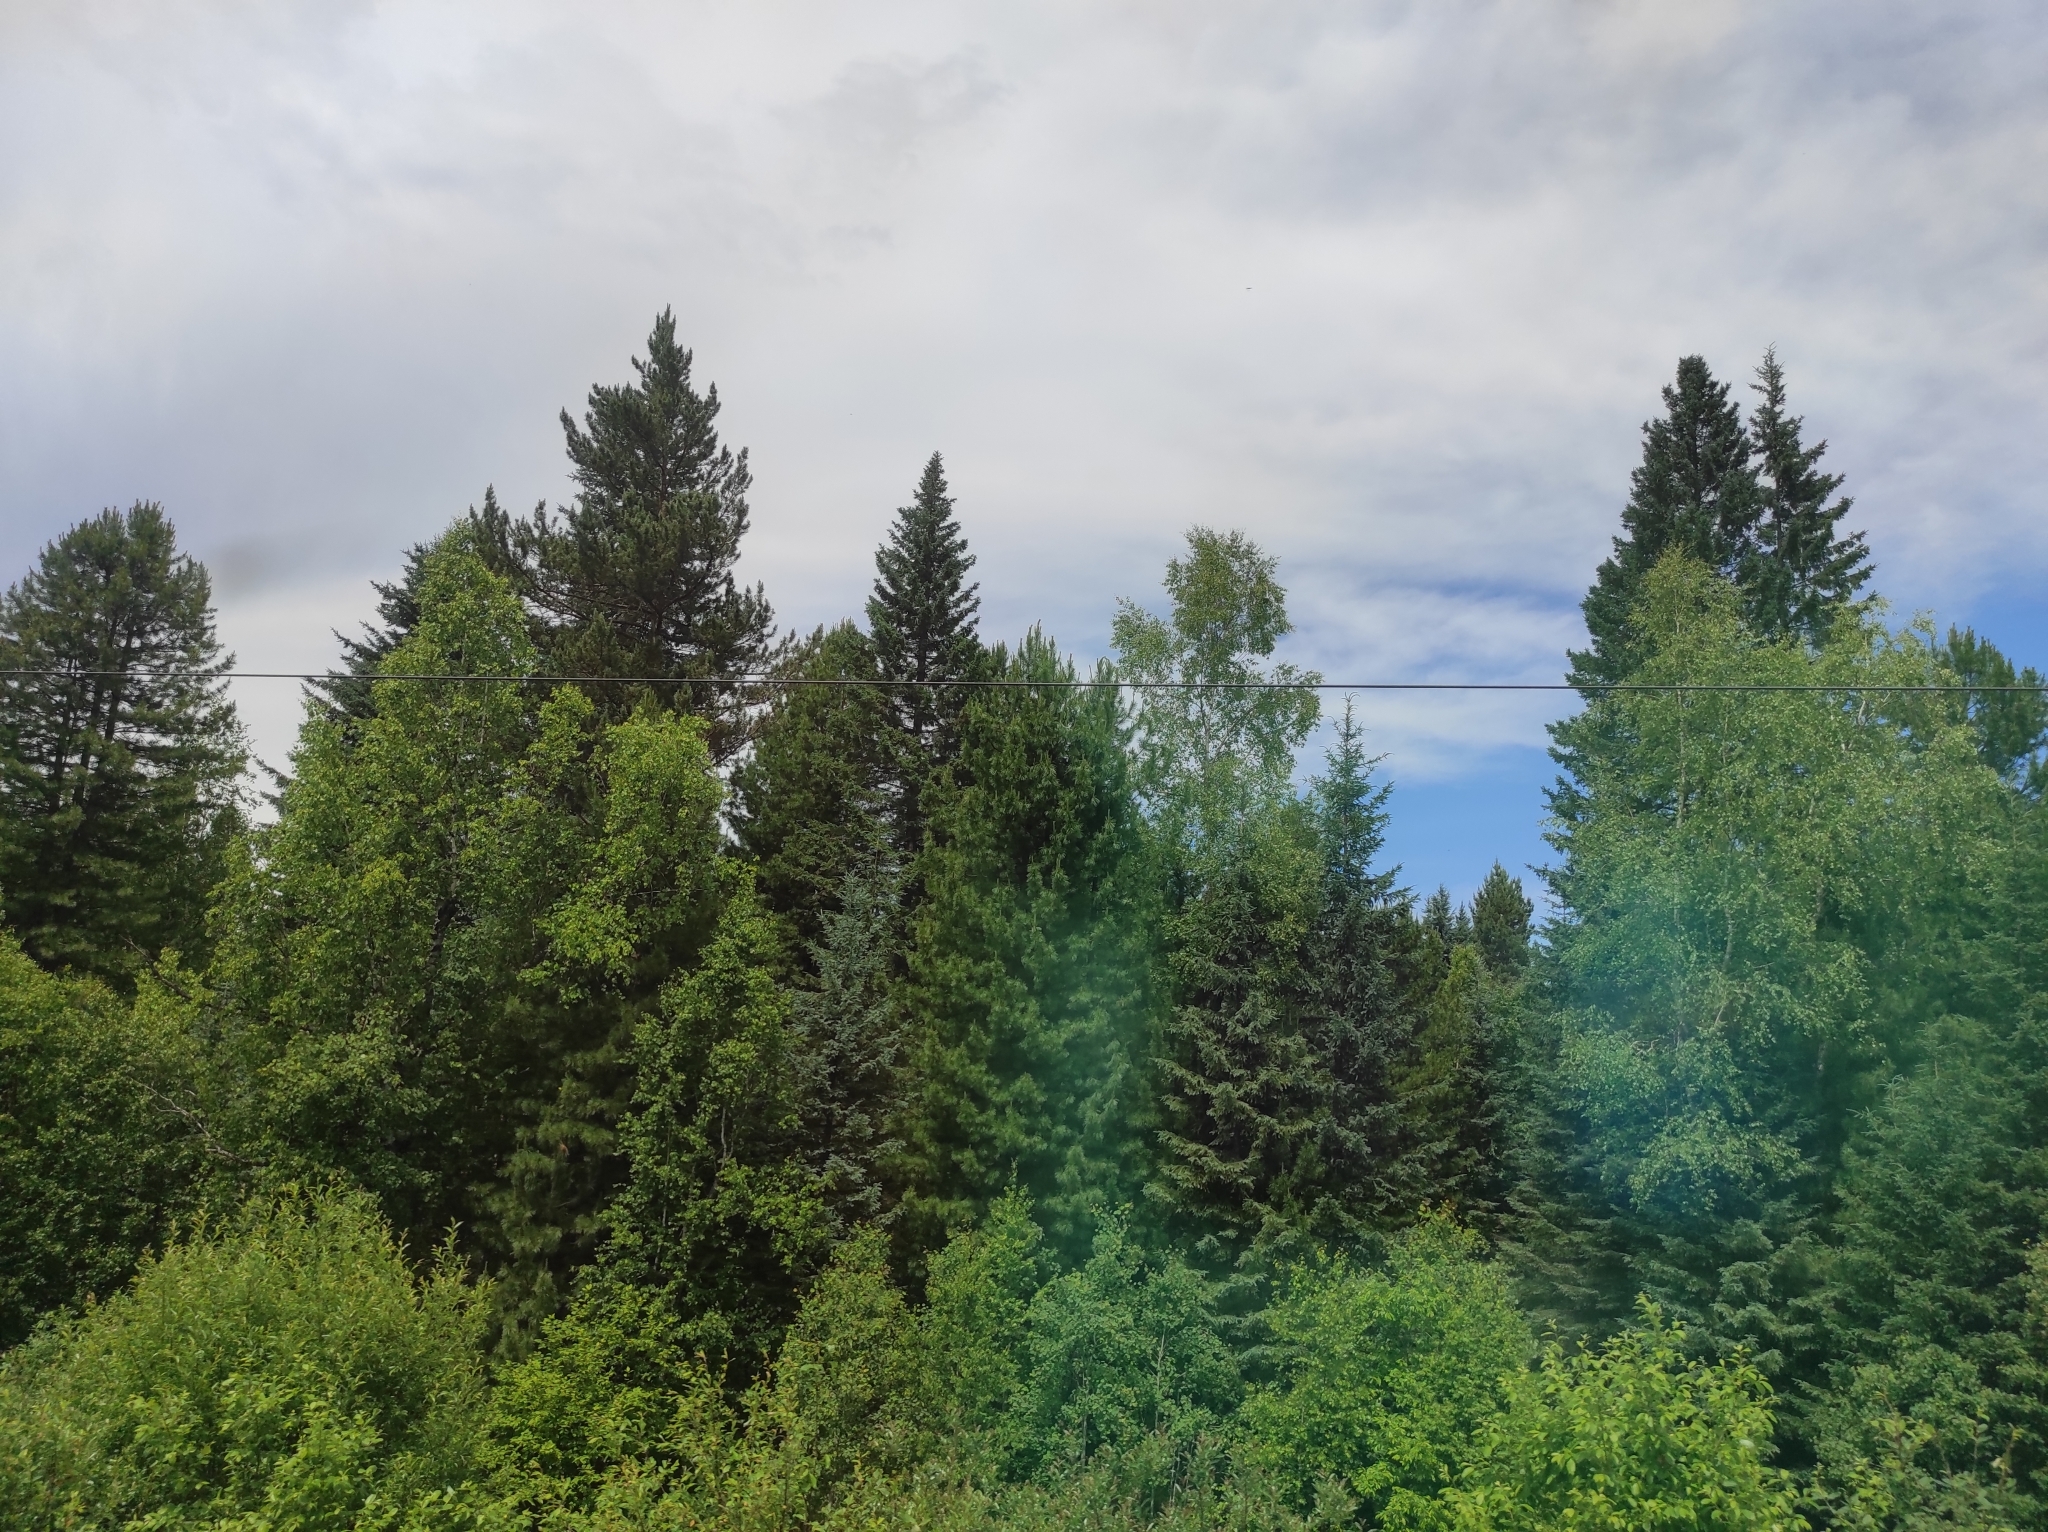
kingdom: Plantae
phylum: Tracheophyta
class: Pinopsida
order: Pinales
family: Pinaceae
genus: Pinus
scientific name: Pinus sylvestris
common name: Scots pine
